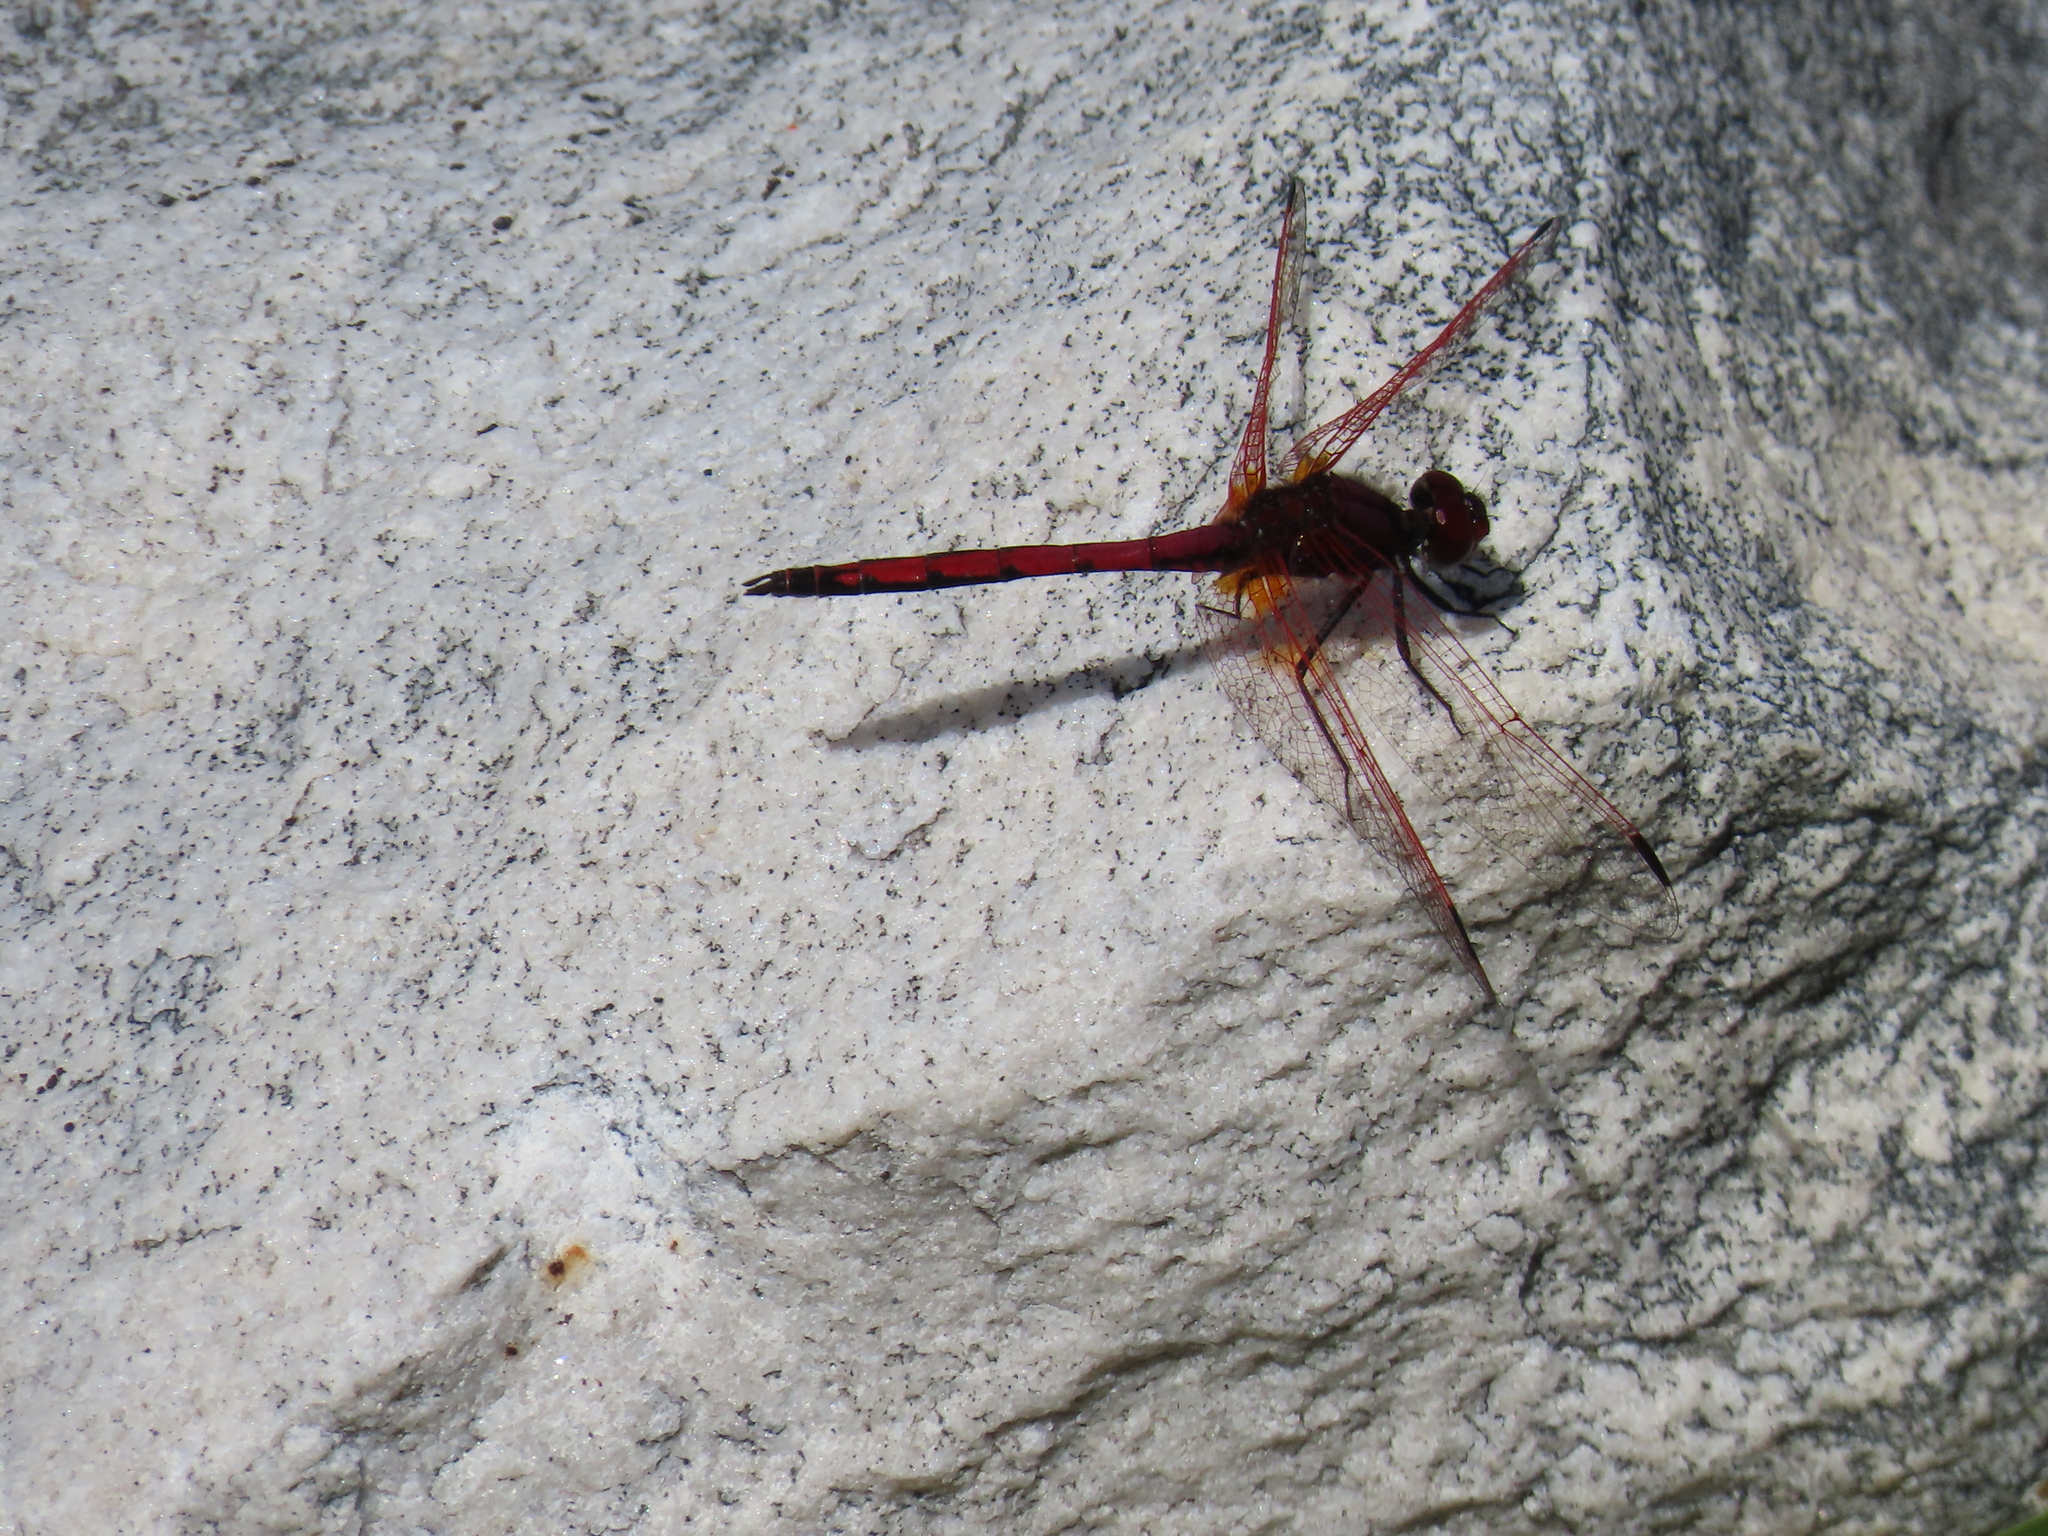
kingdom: Animalia
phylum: Arthropoda
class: Insecta
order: Odonata
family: Libellulidae
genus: Trithemis
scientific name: Trithemis arteriosa
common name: Red-veined dropwing
